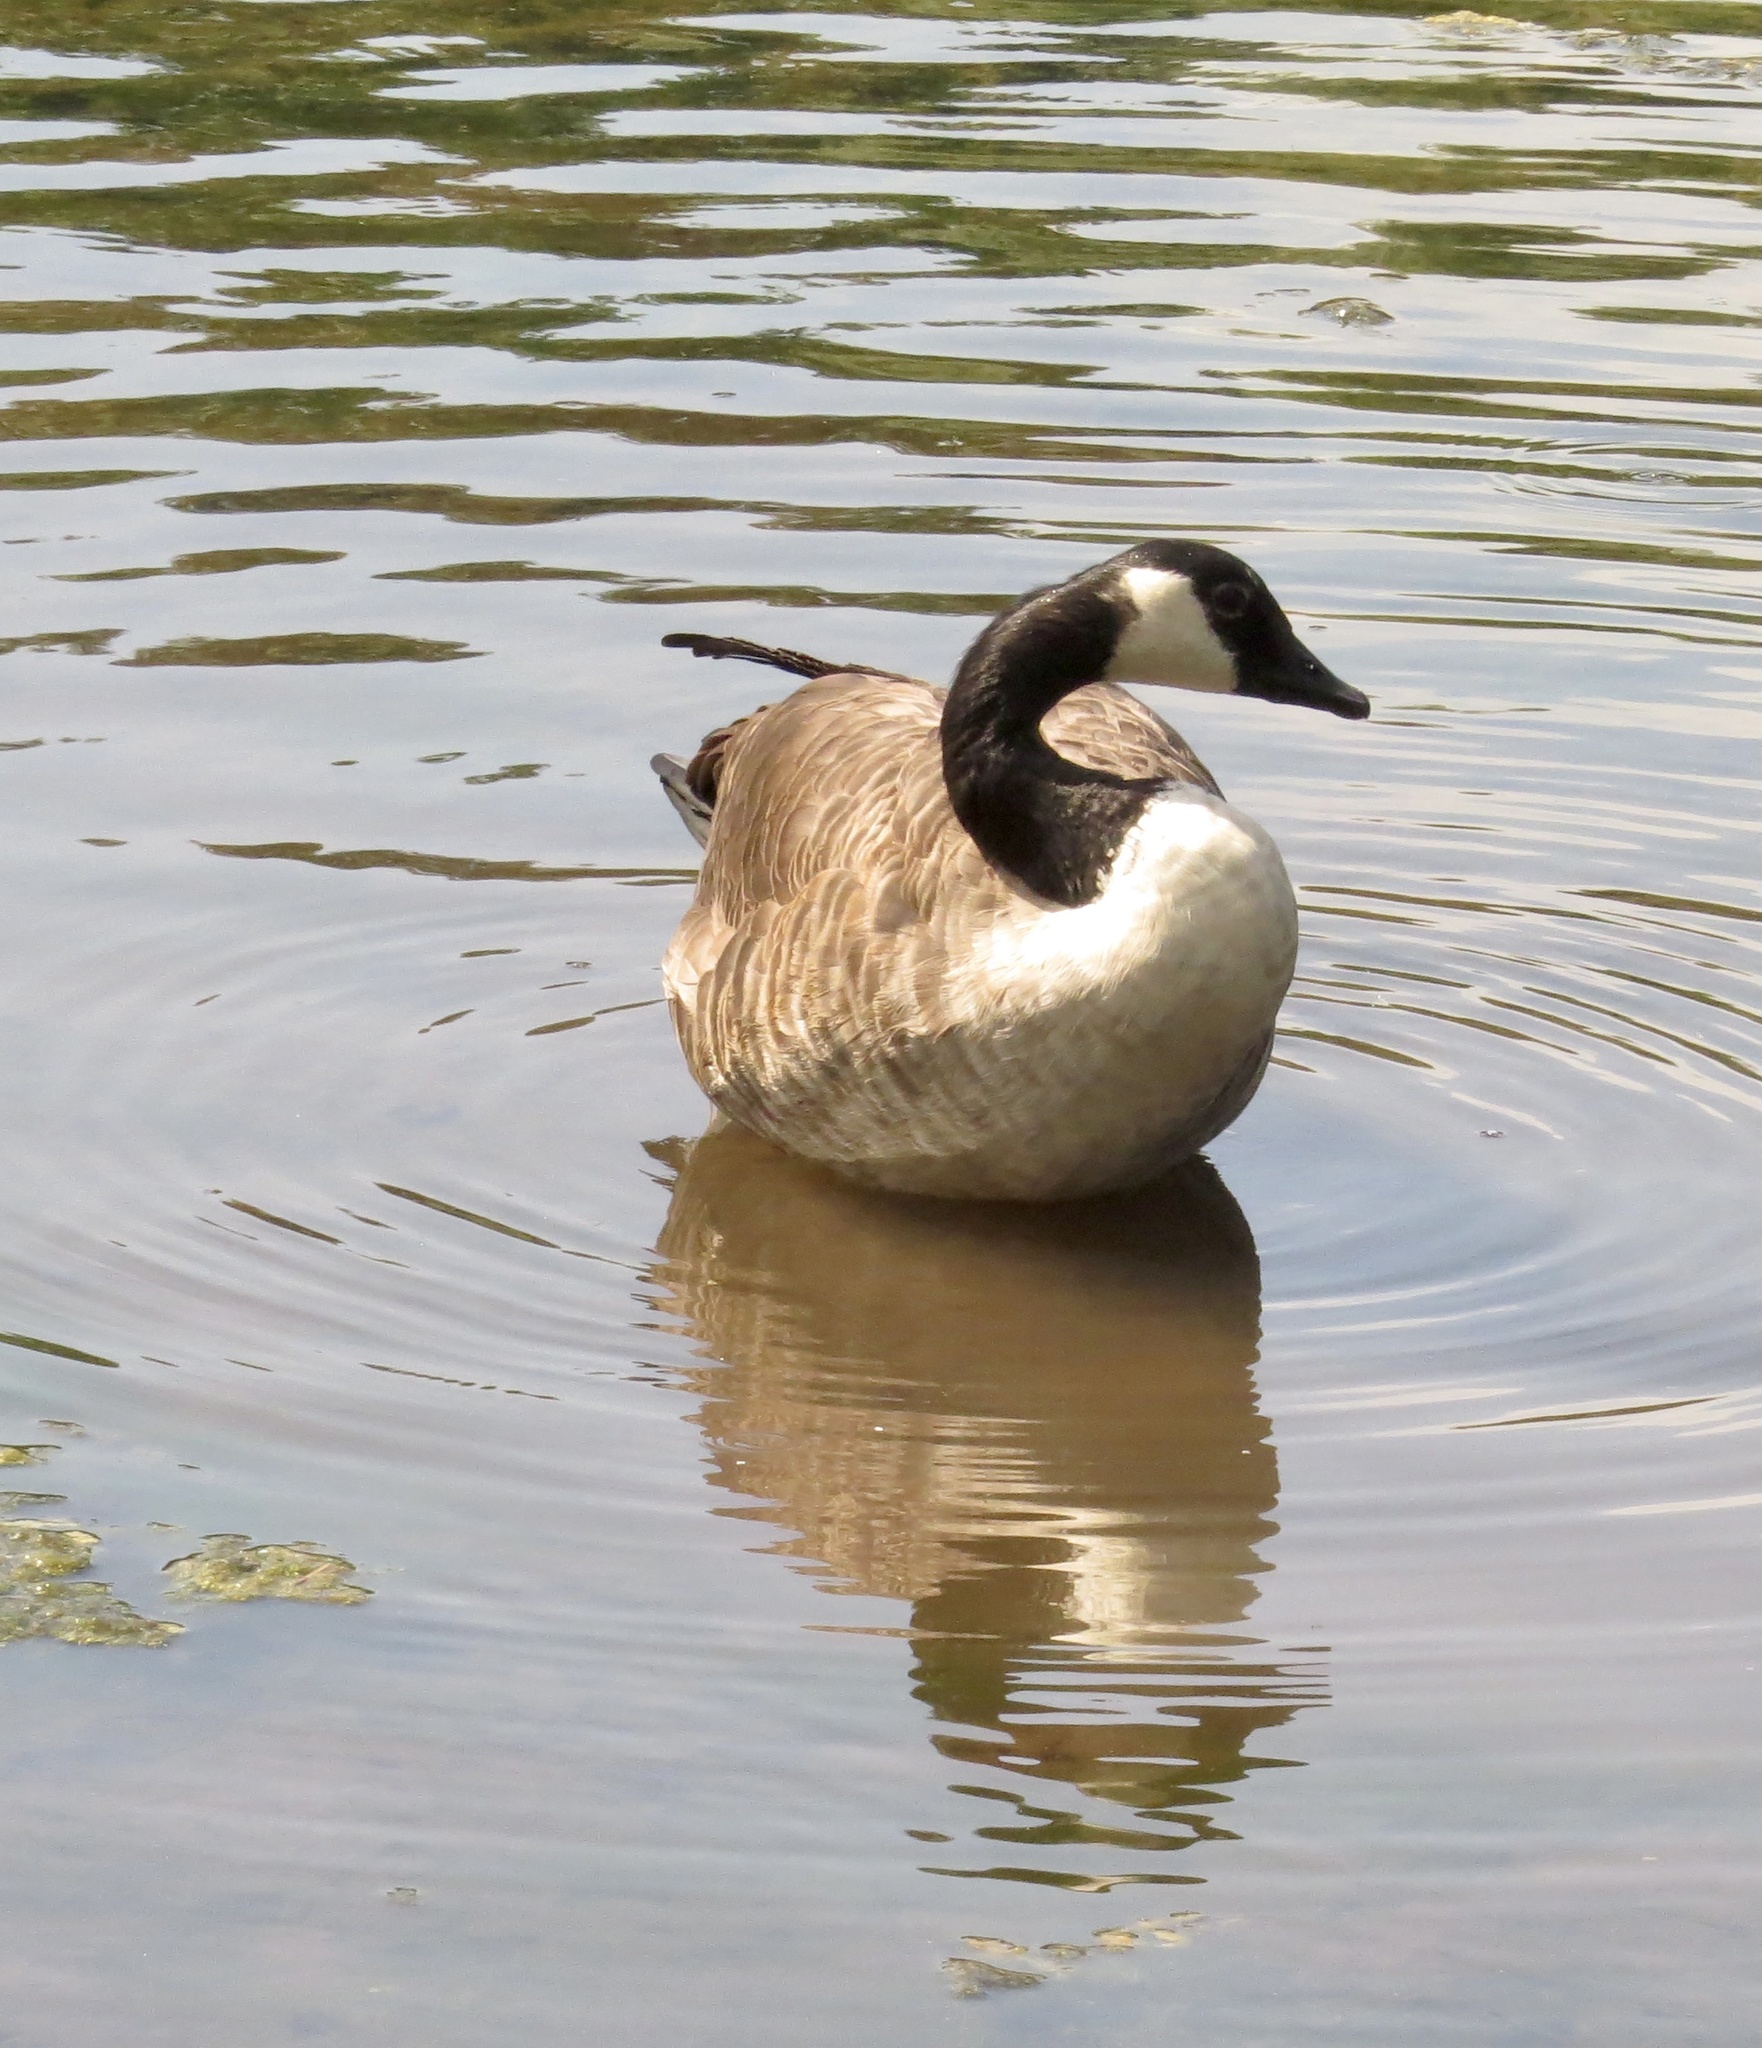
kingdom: Animalia
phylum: Chordata
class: Aves
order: Anseriformes
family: Anatidae
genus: Branta
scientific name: Branta canadensis
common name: Canada goose
